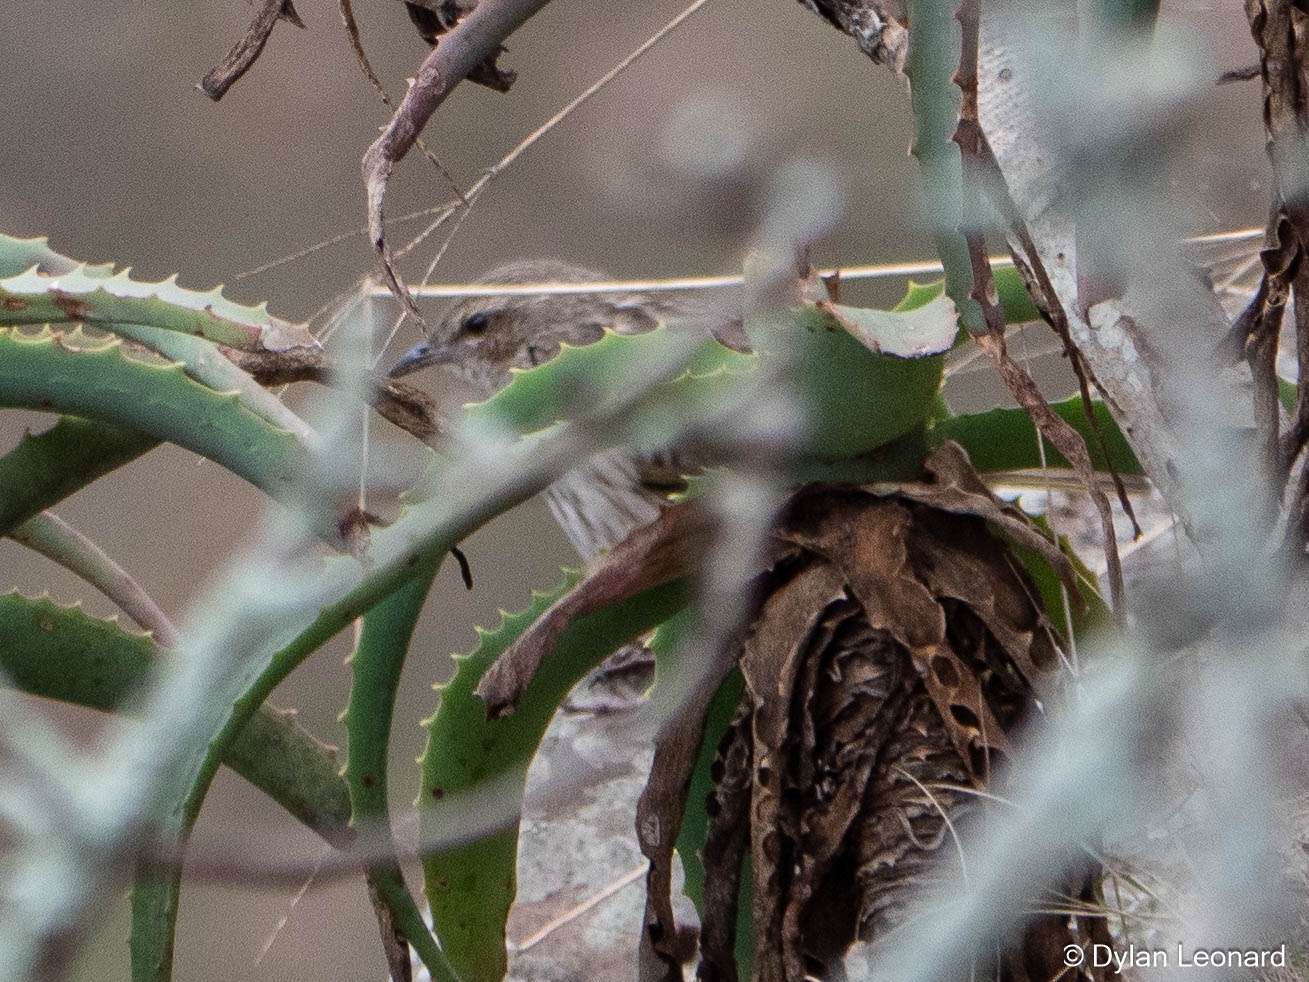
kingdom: Animalia
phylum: Chordata
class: Aves
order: Passeriformes
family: Motacillidae
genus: Anthus
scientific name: Anthus lineiventris
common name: Striped pipit
